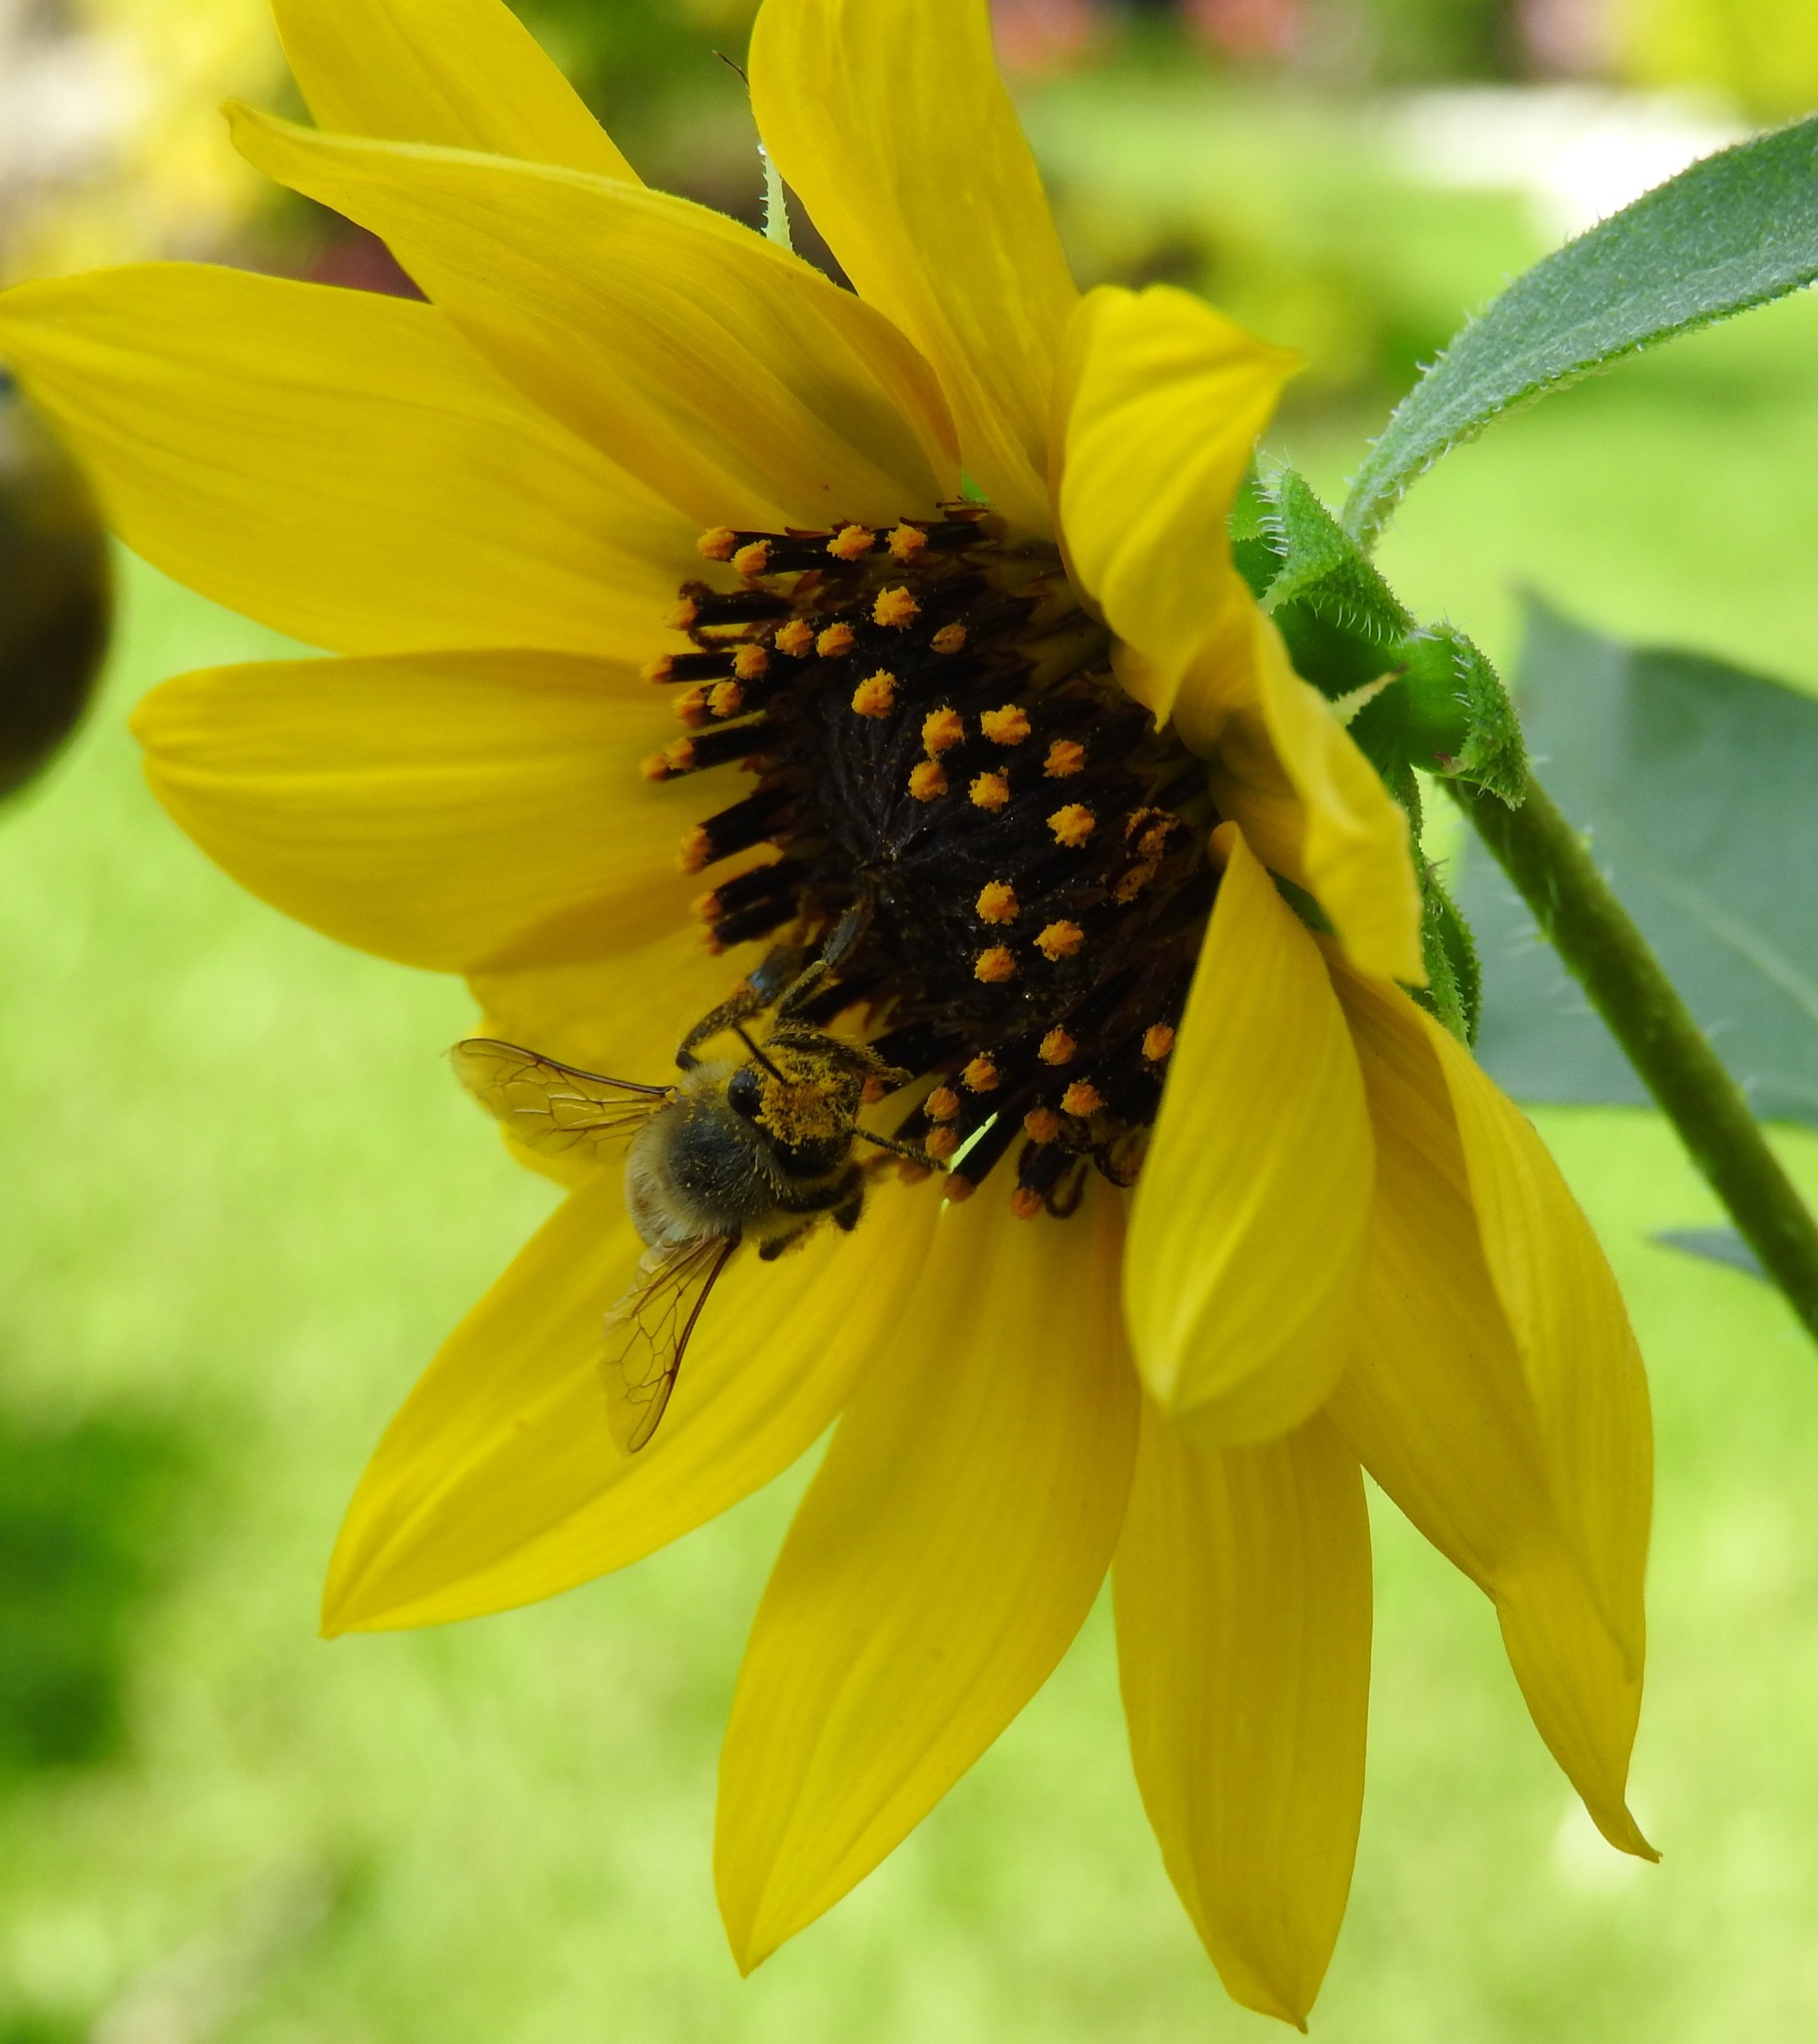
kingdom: Animalia
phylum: Arthropoda
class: Insecta
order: Hymenoptera
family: Apidae
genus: Apis
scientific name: Apis mellifera
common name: Honey bee
